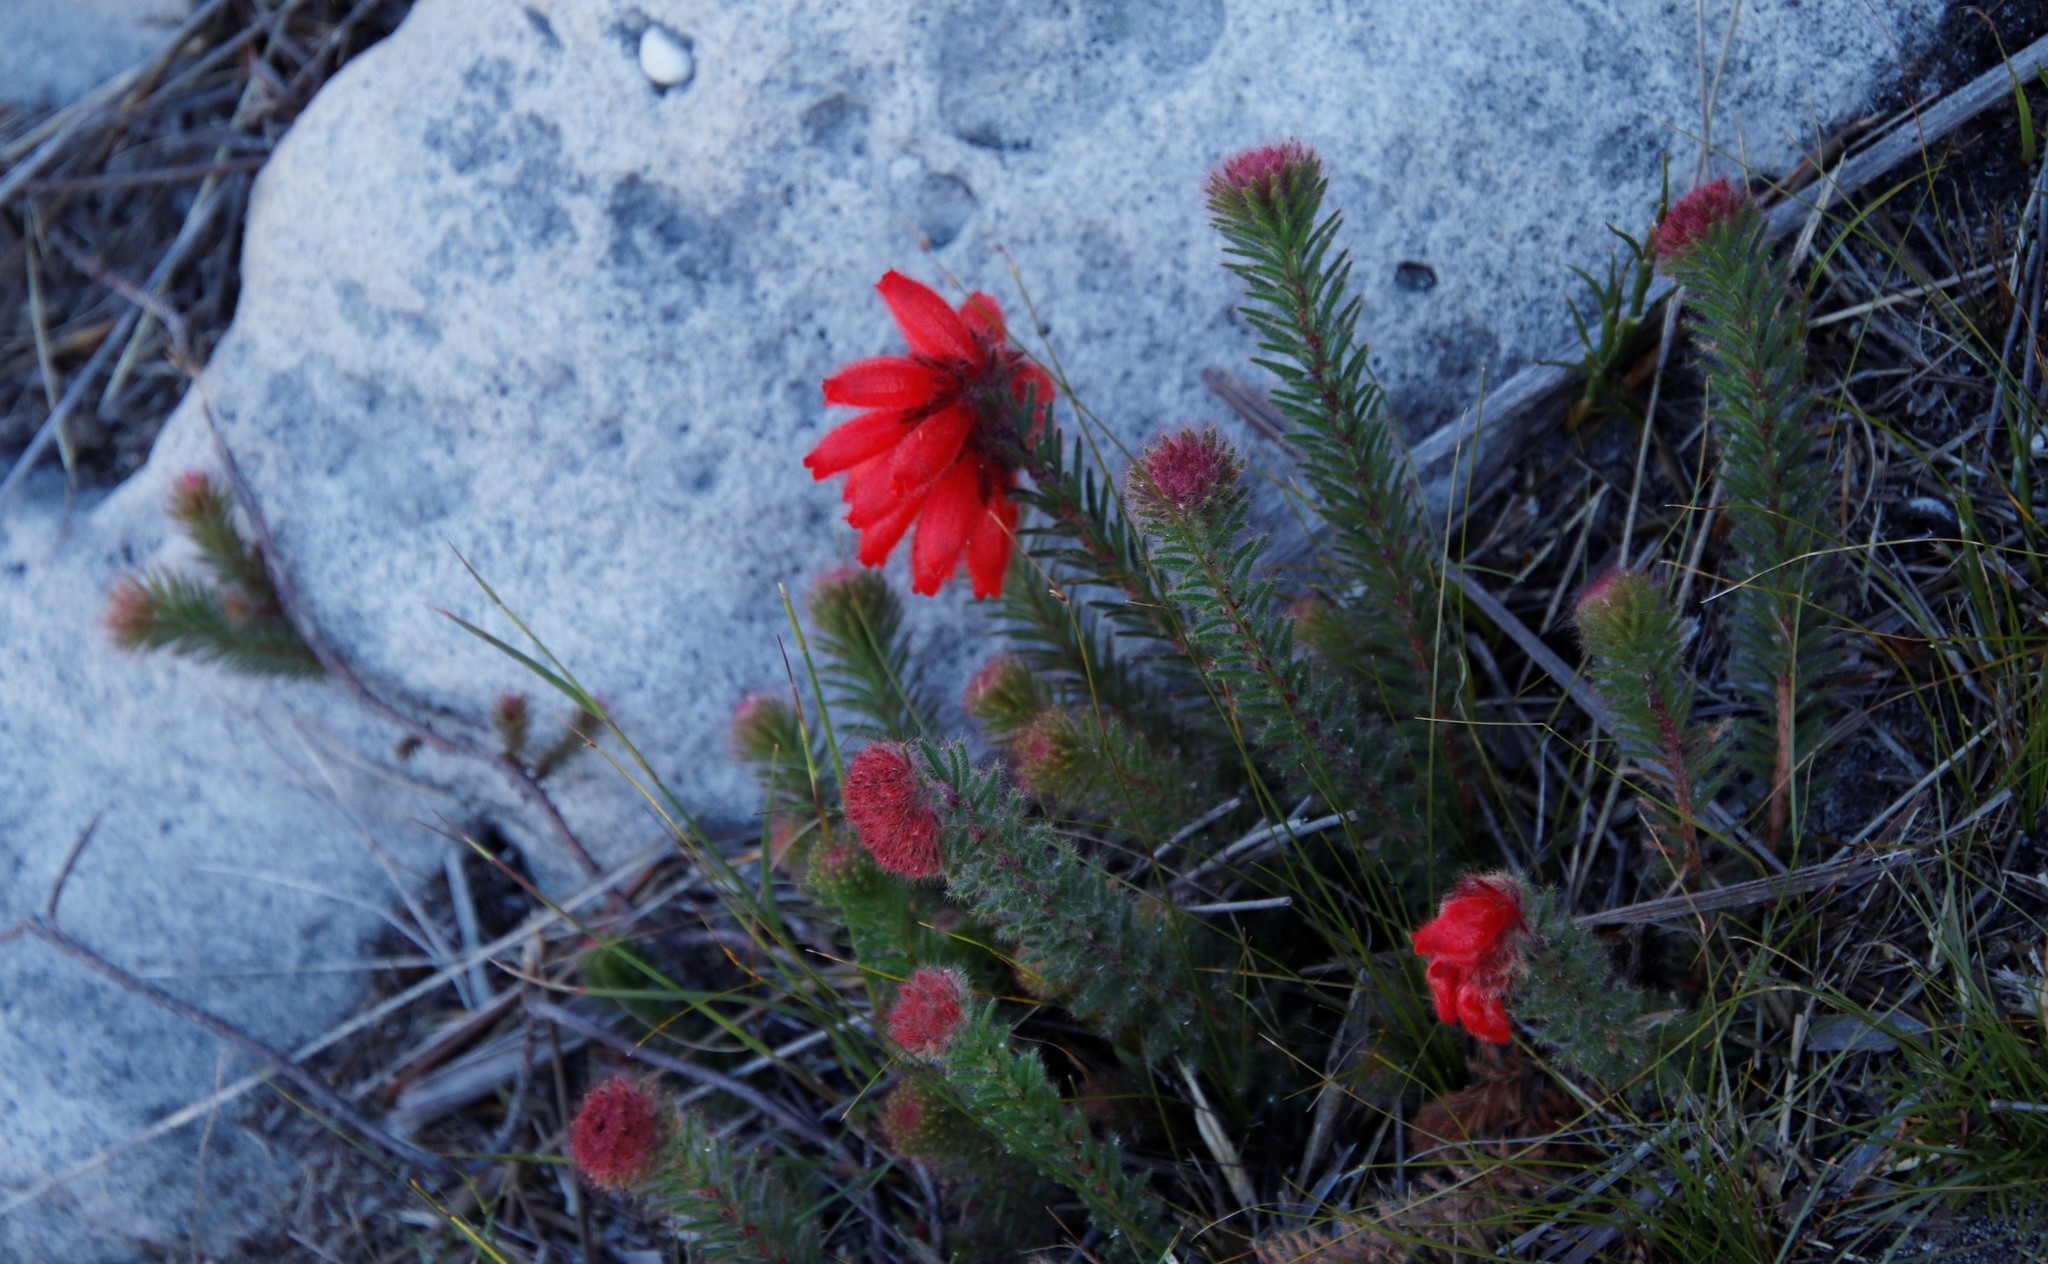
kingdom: Plantae
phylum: Tracheophyta
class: Magnoliopsida
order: Ericales
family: Ericaceae
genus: Erica
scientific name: Erica cerinthoides
